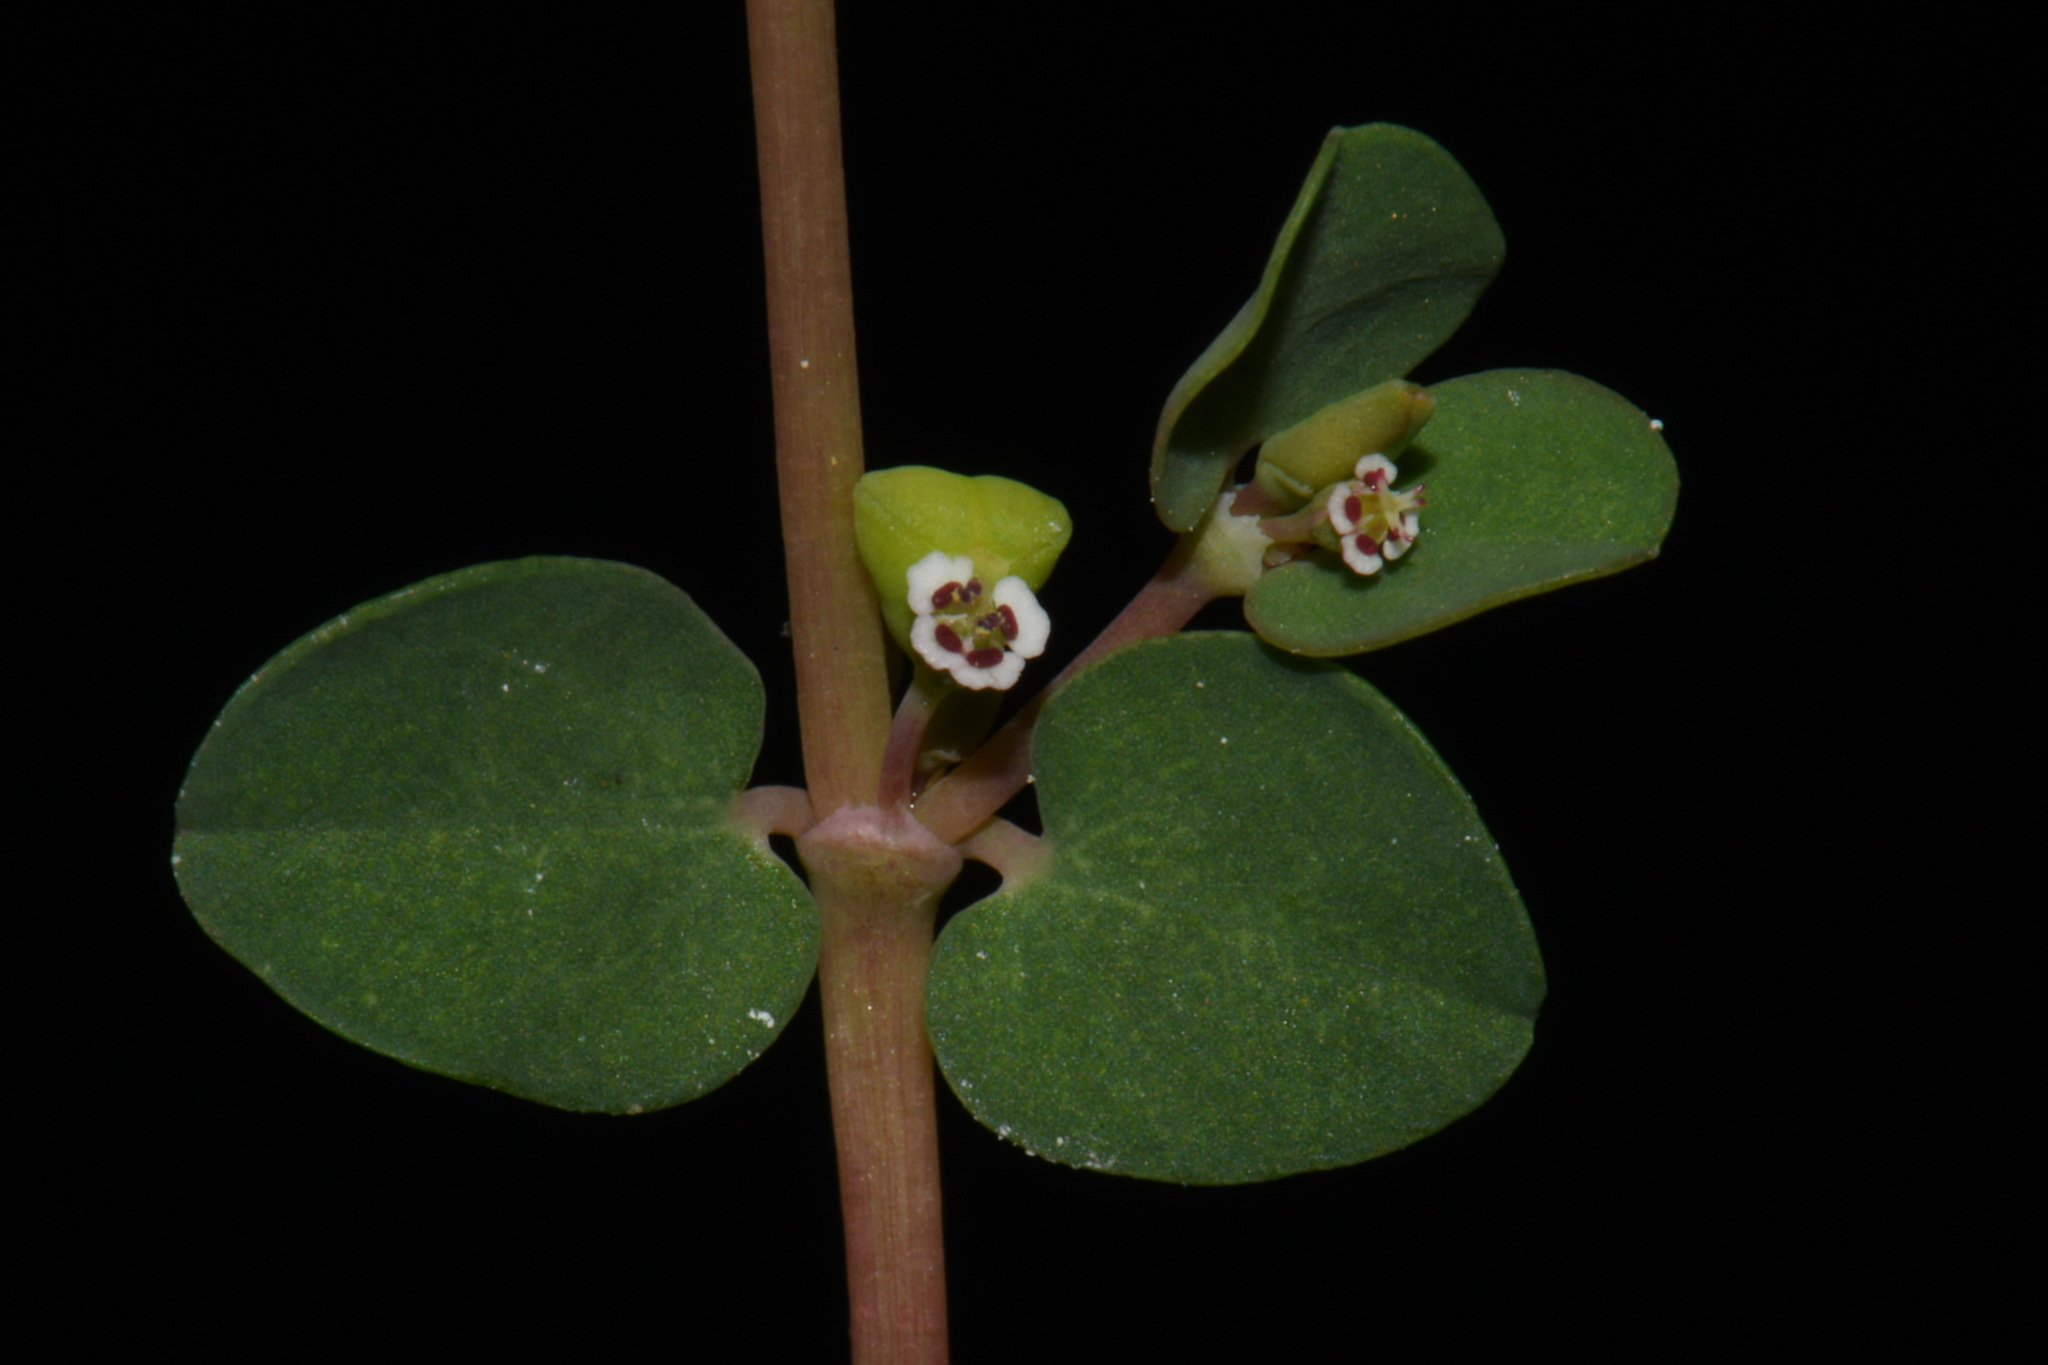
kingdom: Plantae
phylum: Tracheophyta
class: Magnoliopsida
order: Malpighiales
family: Euphorbiaceae
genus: Euphorbia
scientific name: Euphorbia serpens
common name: Matted sandmat
